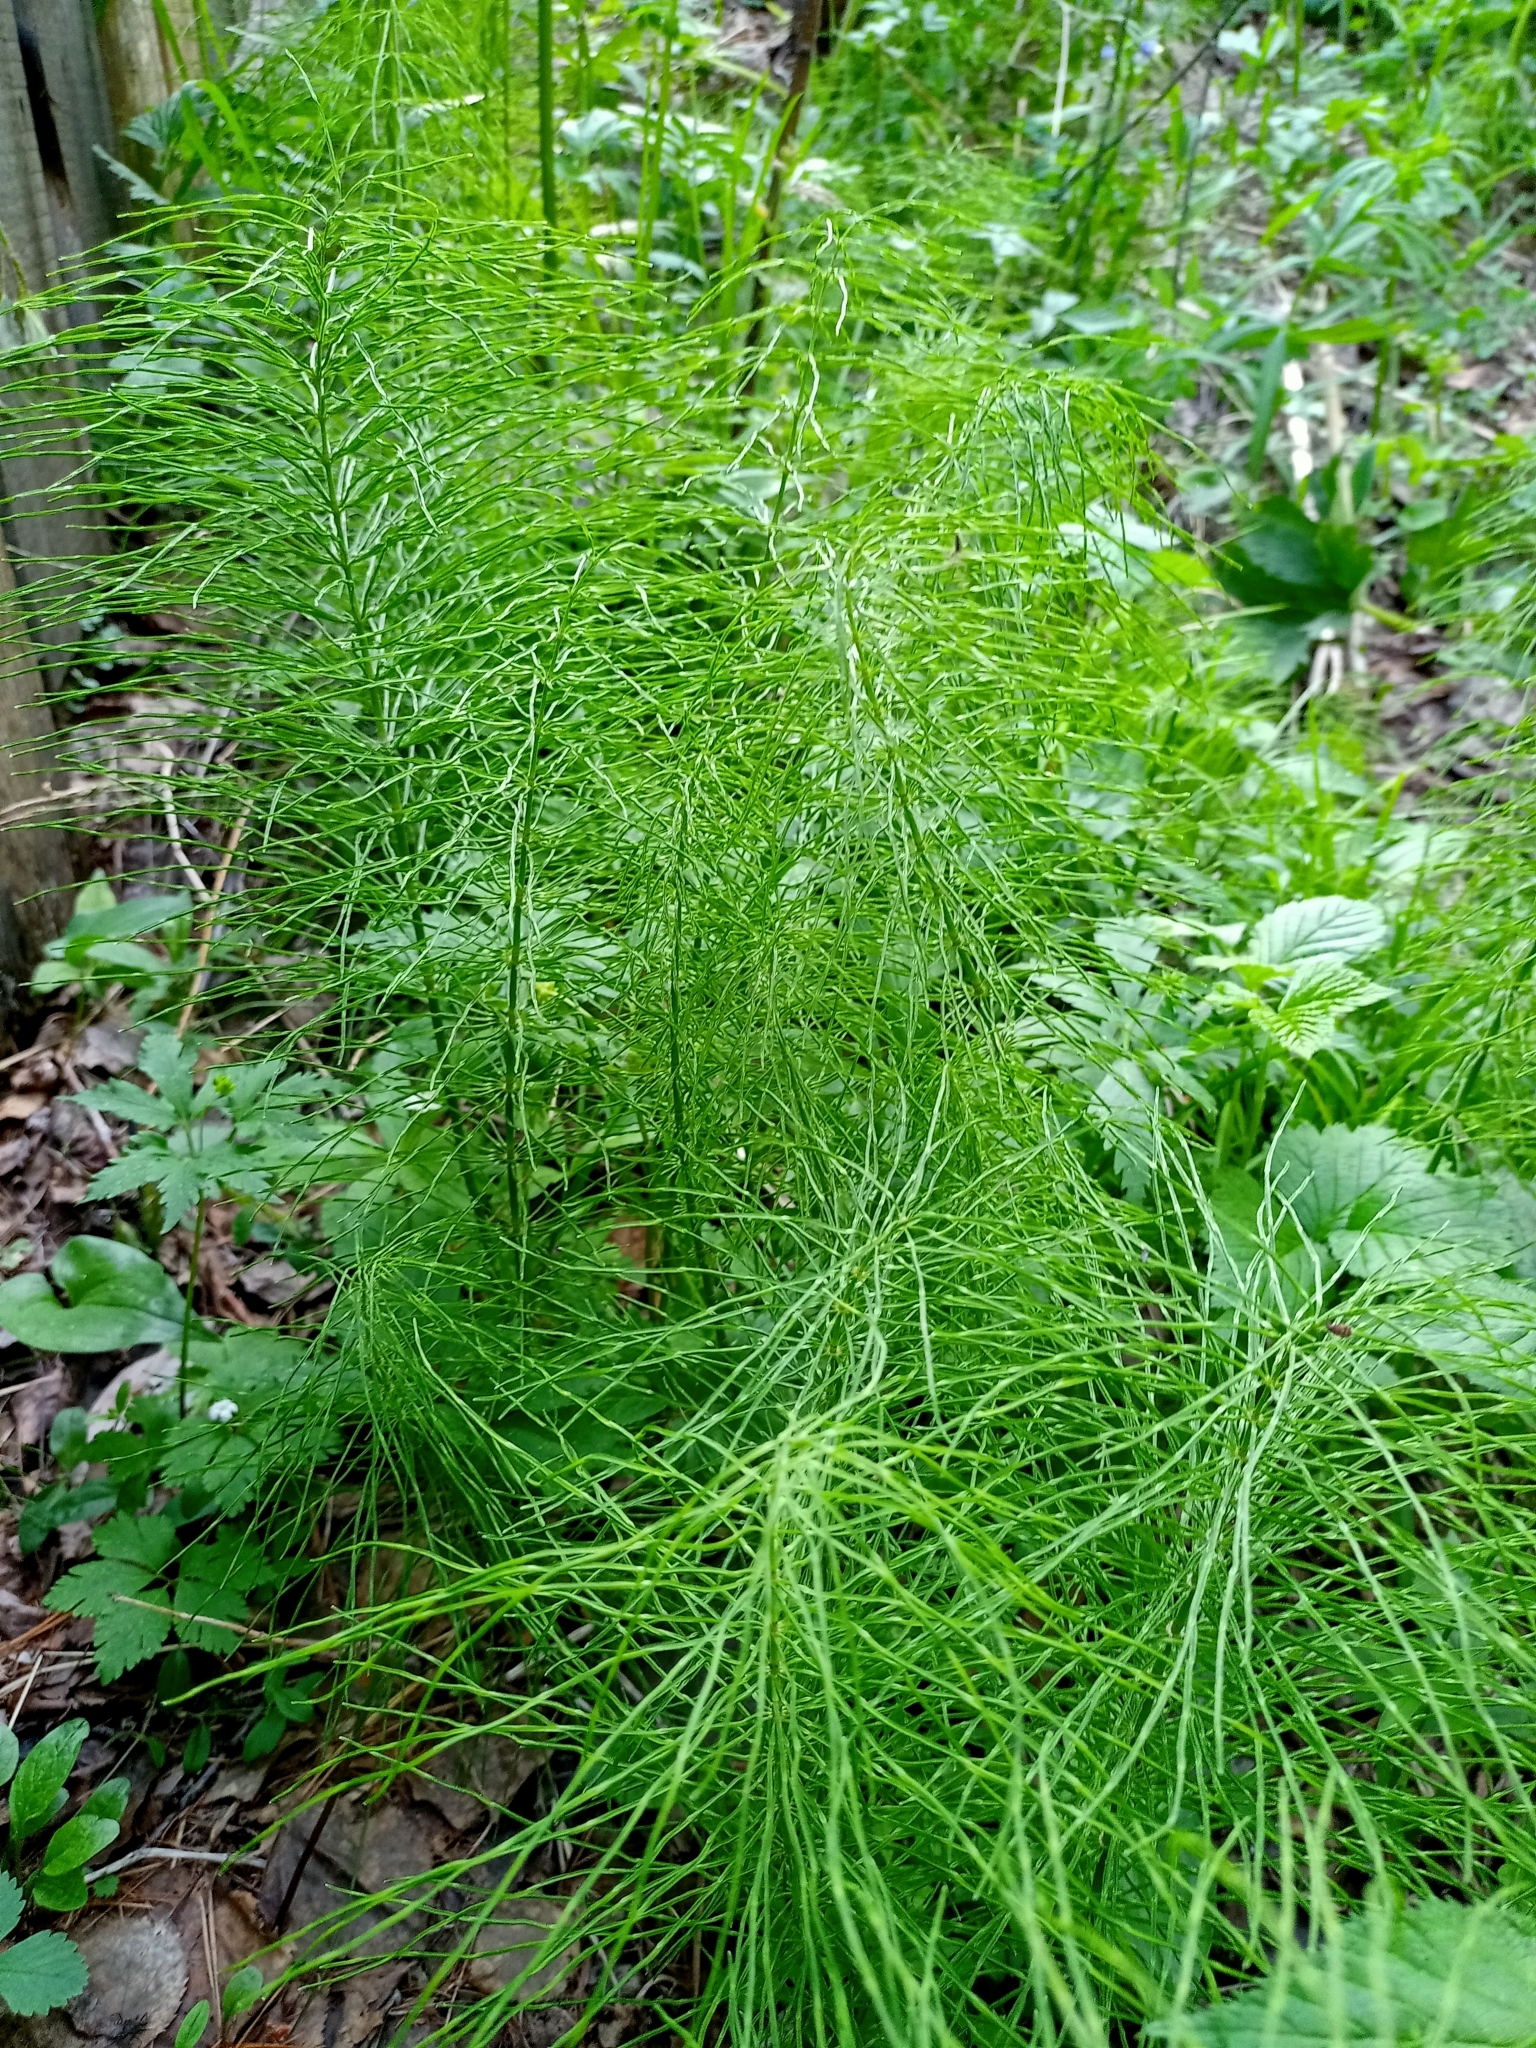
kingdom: Plantae
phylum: Tracheophyta
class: Polypodiopsida
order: Equisetales
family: Equisetaceae
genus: Equisetum
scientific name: Equisetum pratense
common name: Meadow horsetail
